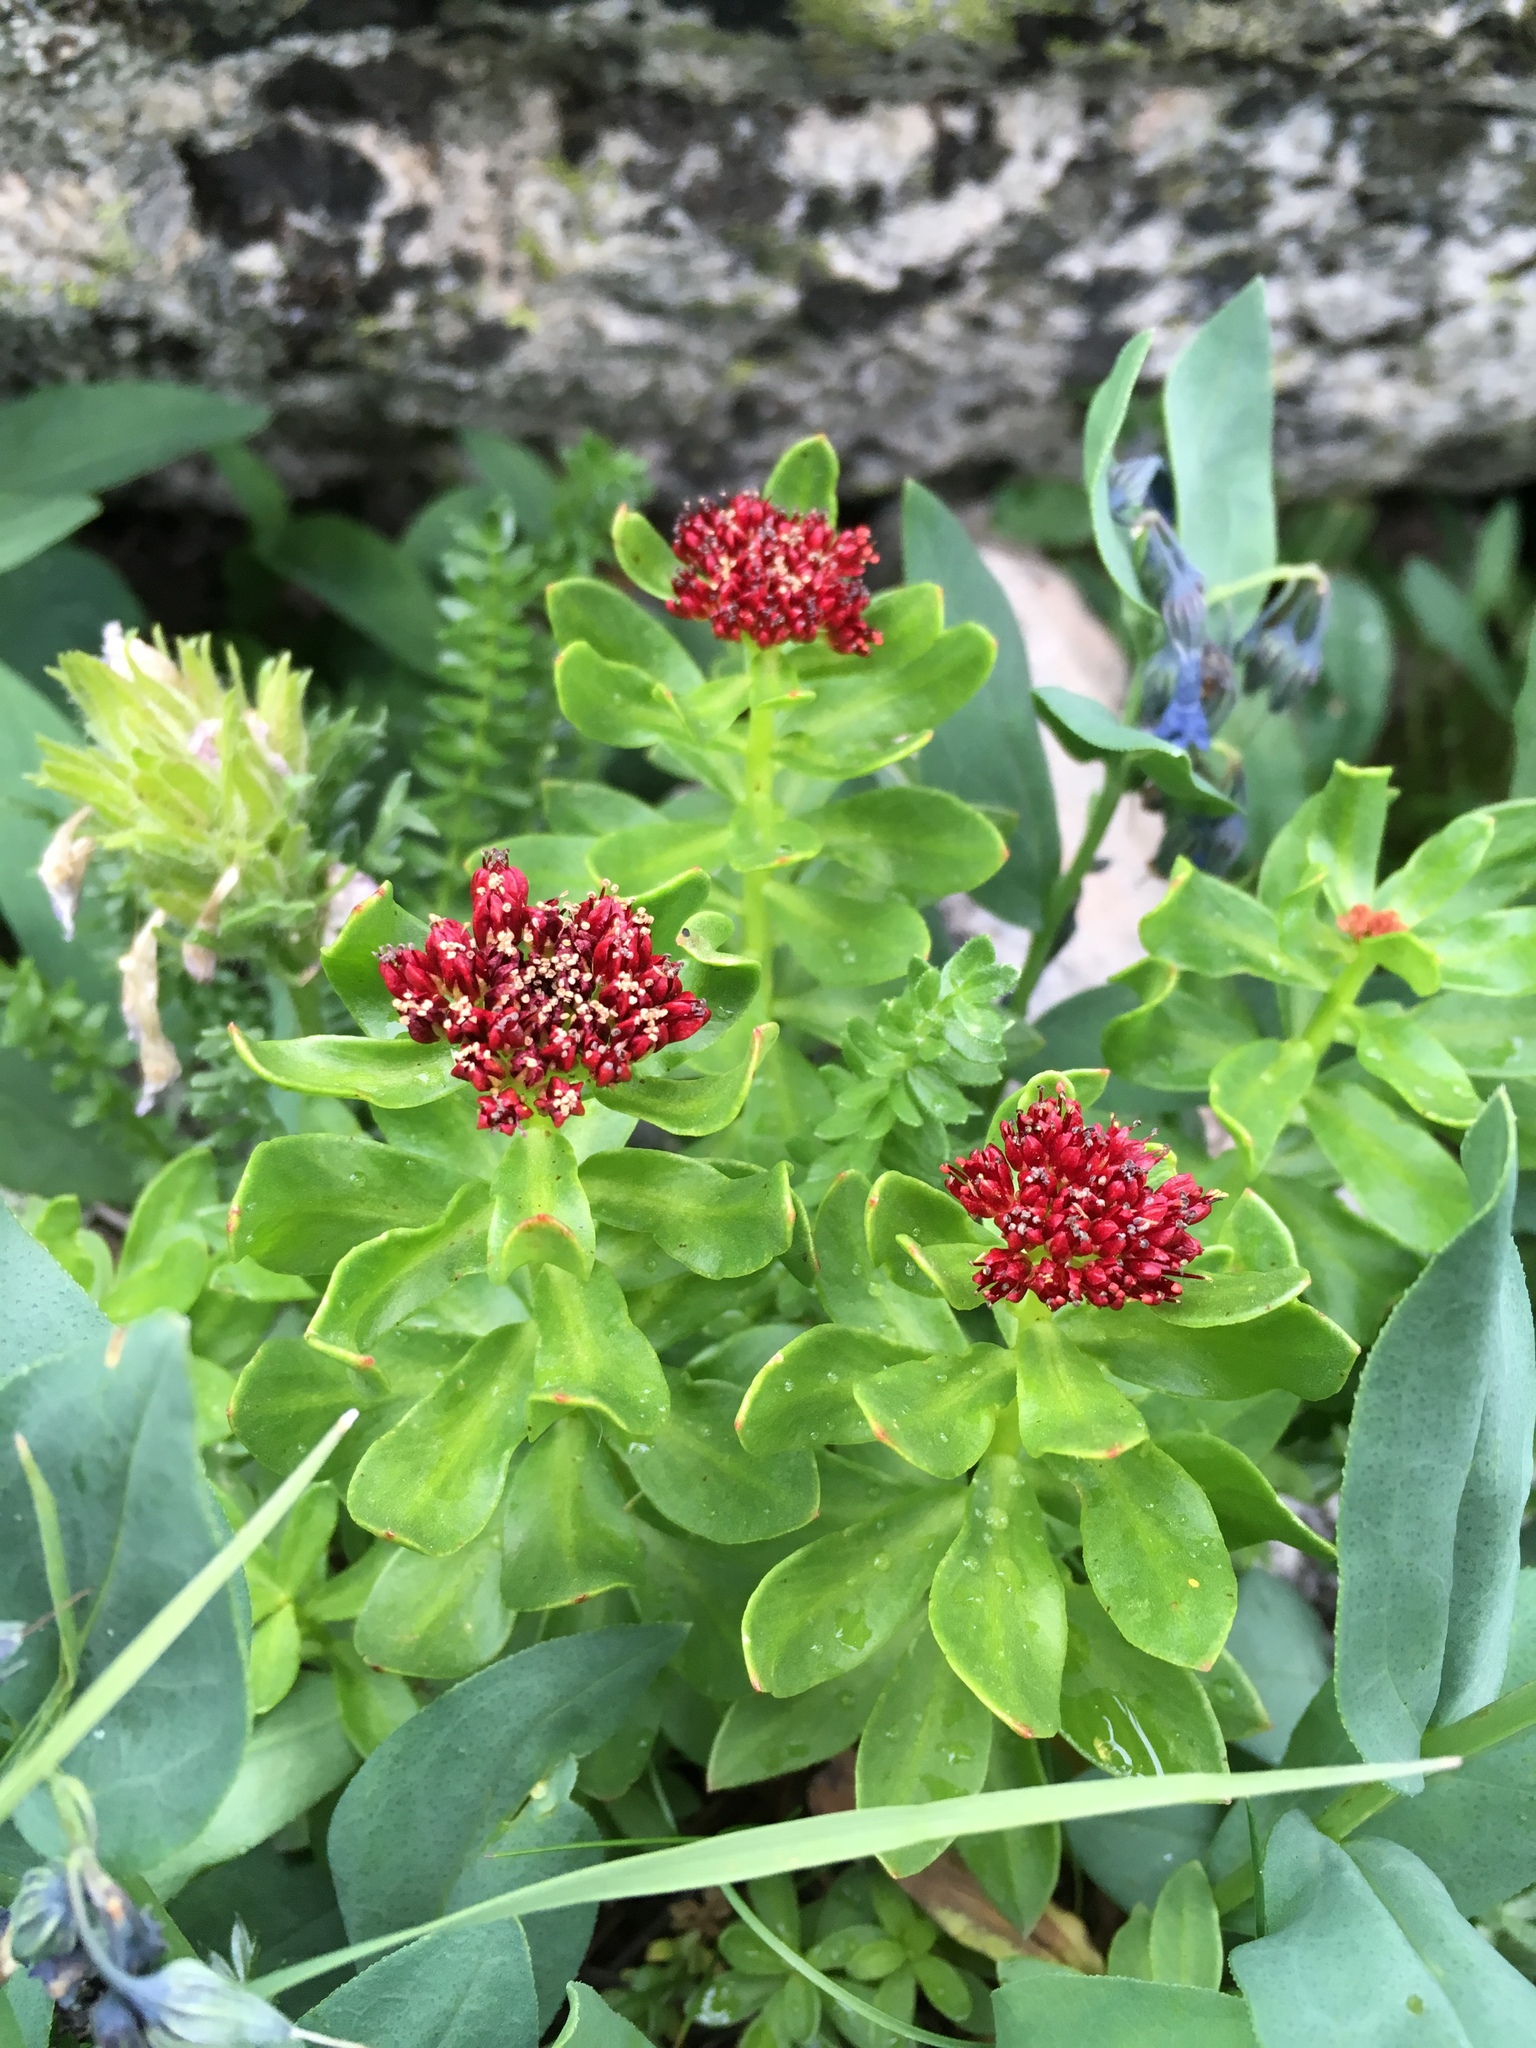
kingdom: Plantae
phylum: Tracheophyta
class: Magnoliopsida
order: Saxifragales
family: Crassulaceae
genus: Rhodiola
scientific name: Rhodiola integrifolia
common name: Western roseroot
